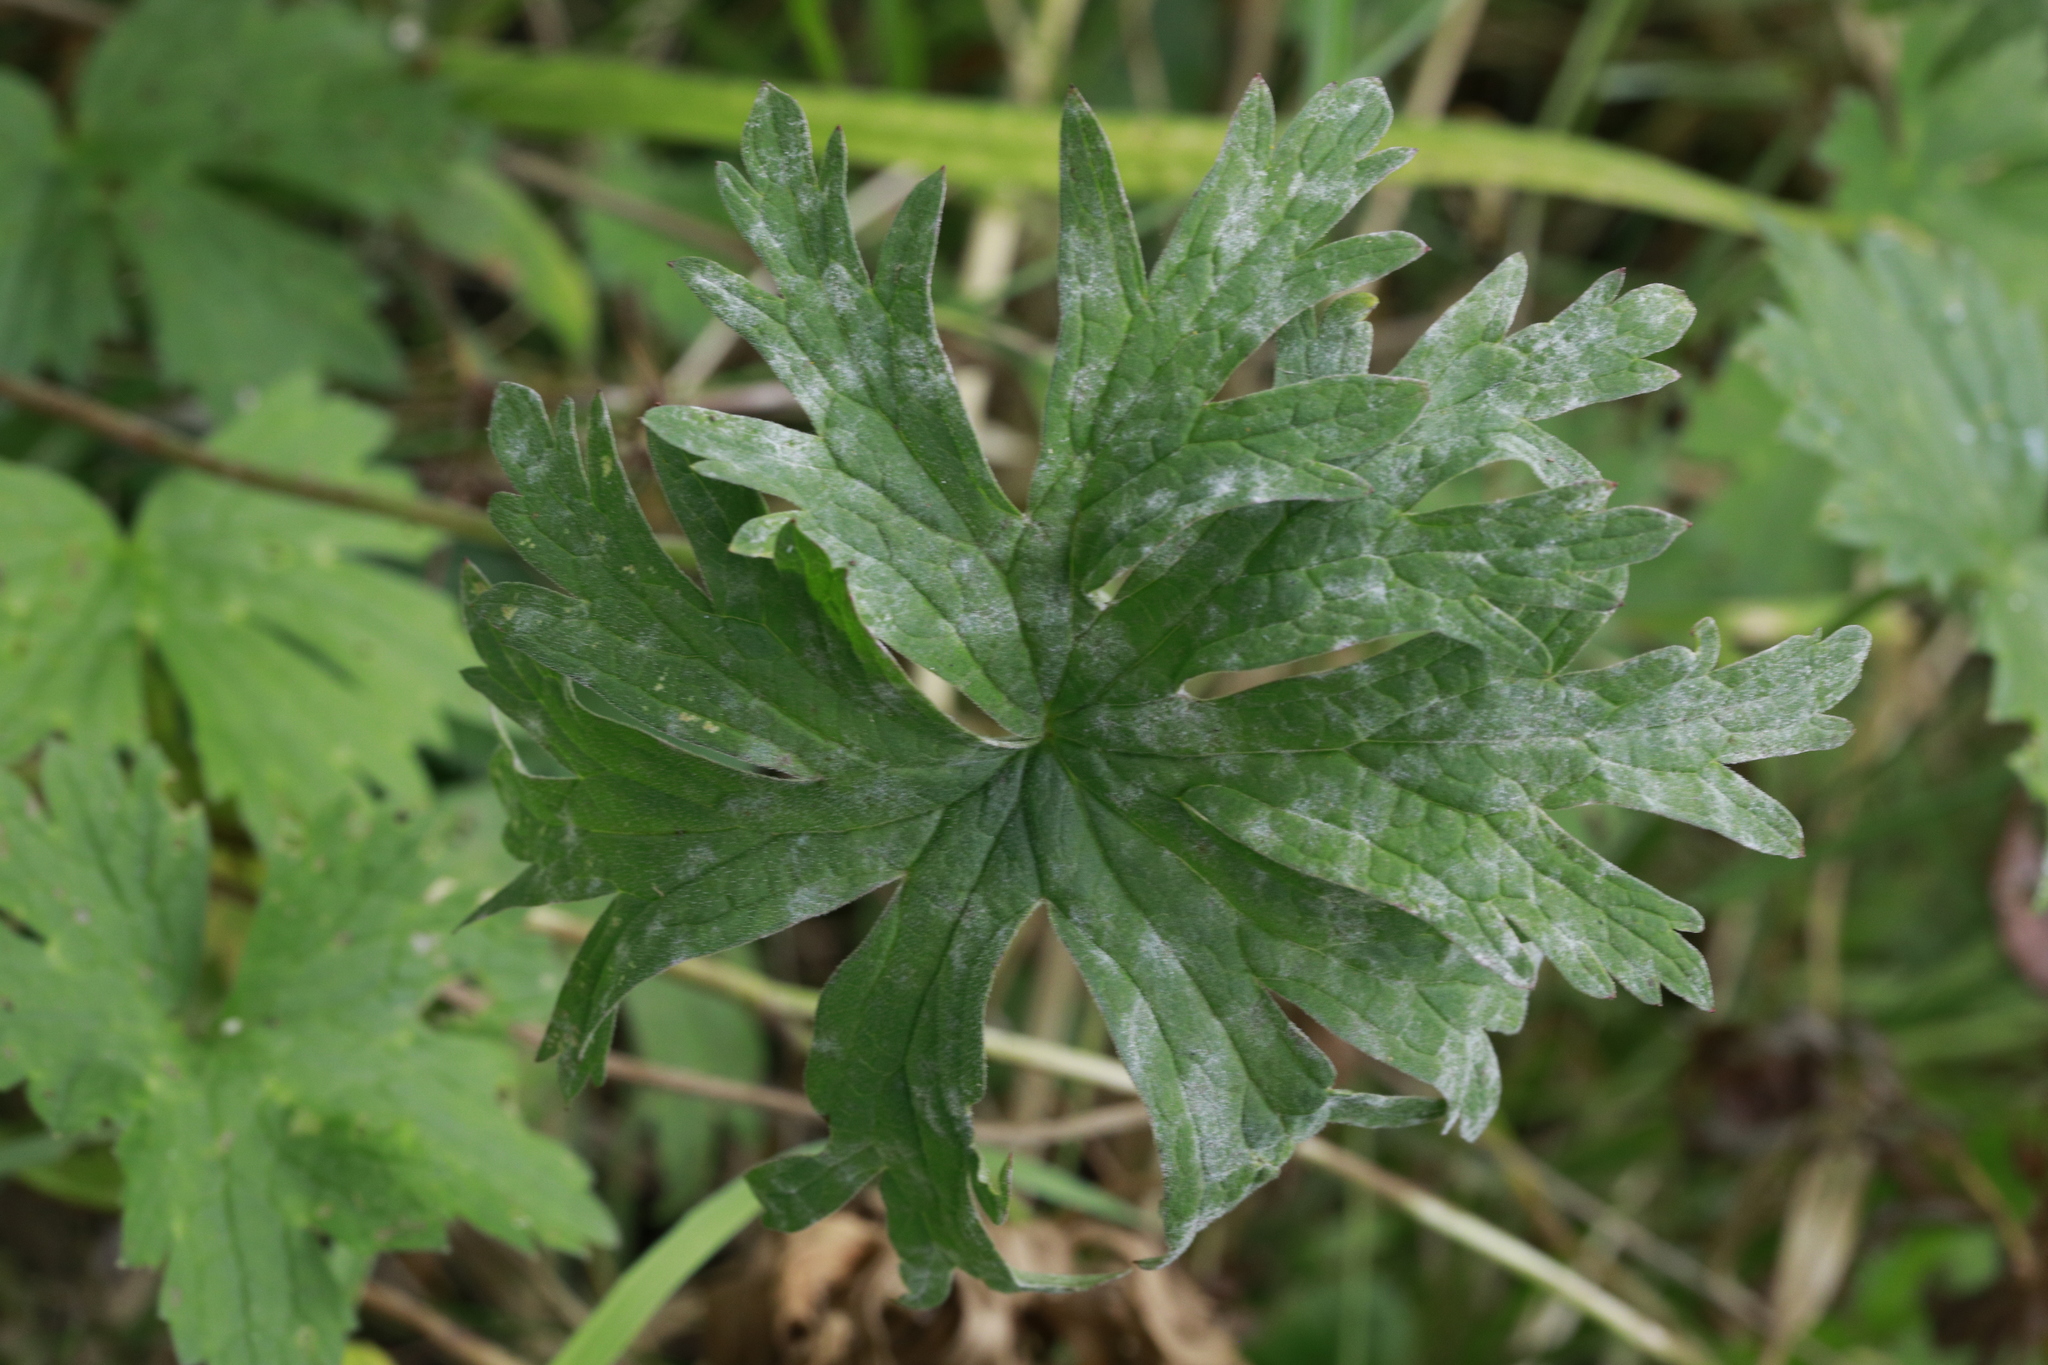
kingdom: Fungi
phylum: Ascomycota
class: Leotiomycetes
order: Helotiales
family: Erysiphaceae
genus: Neoerysiphe
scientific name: Neoerysiphe geranii
